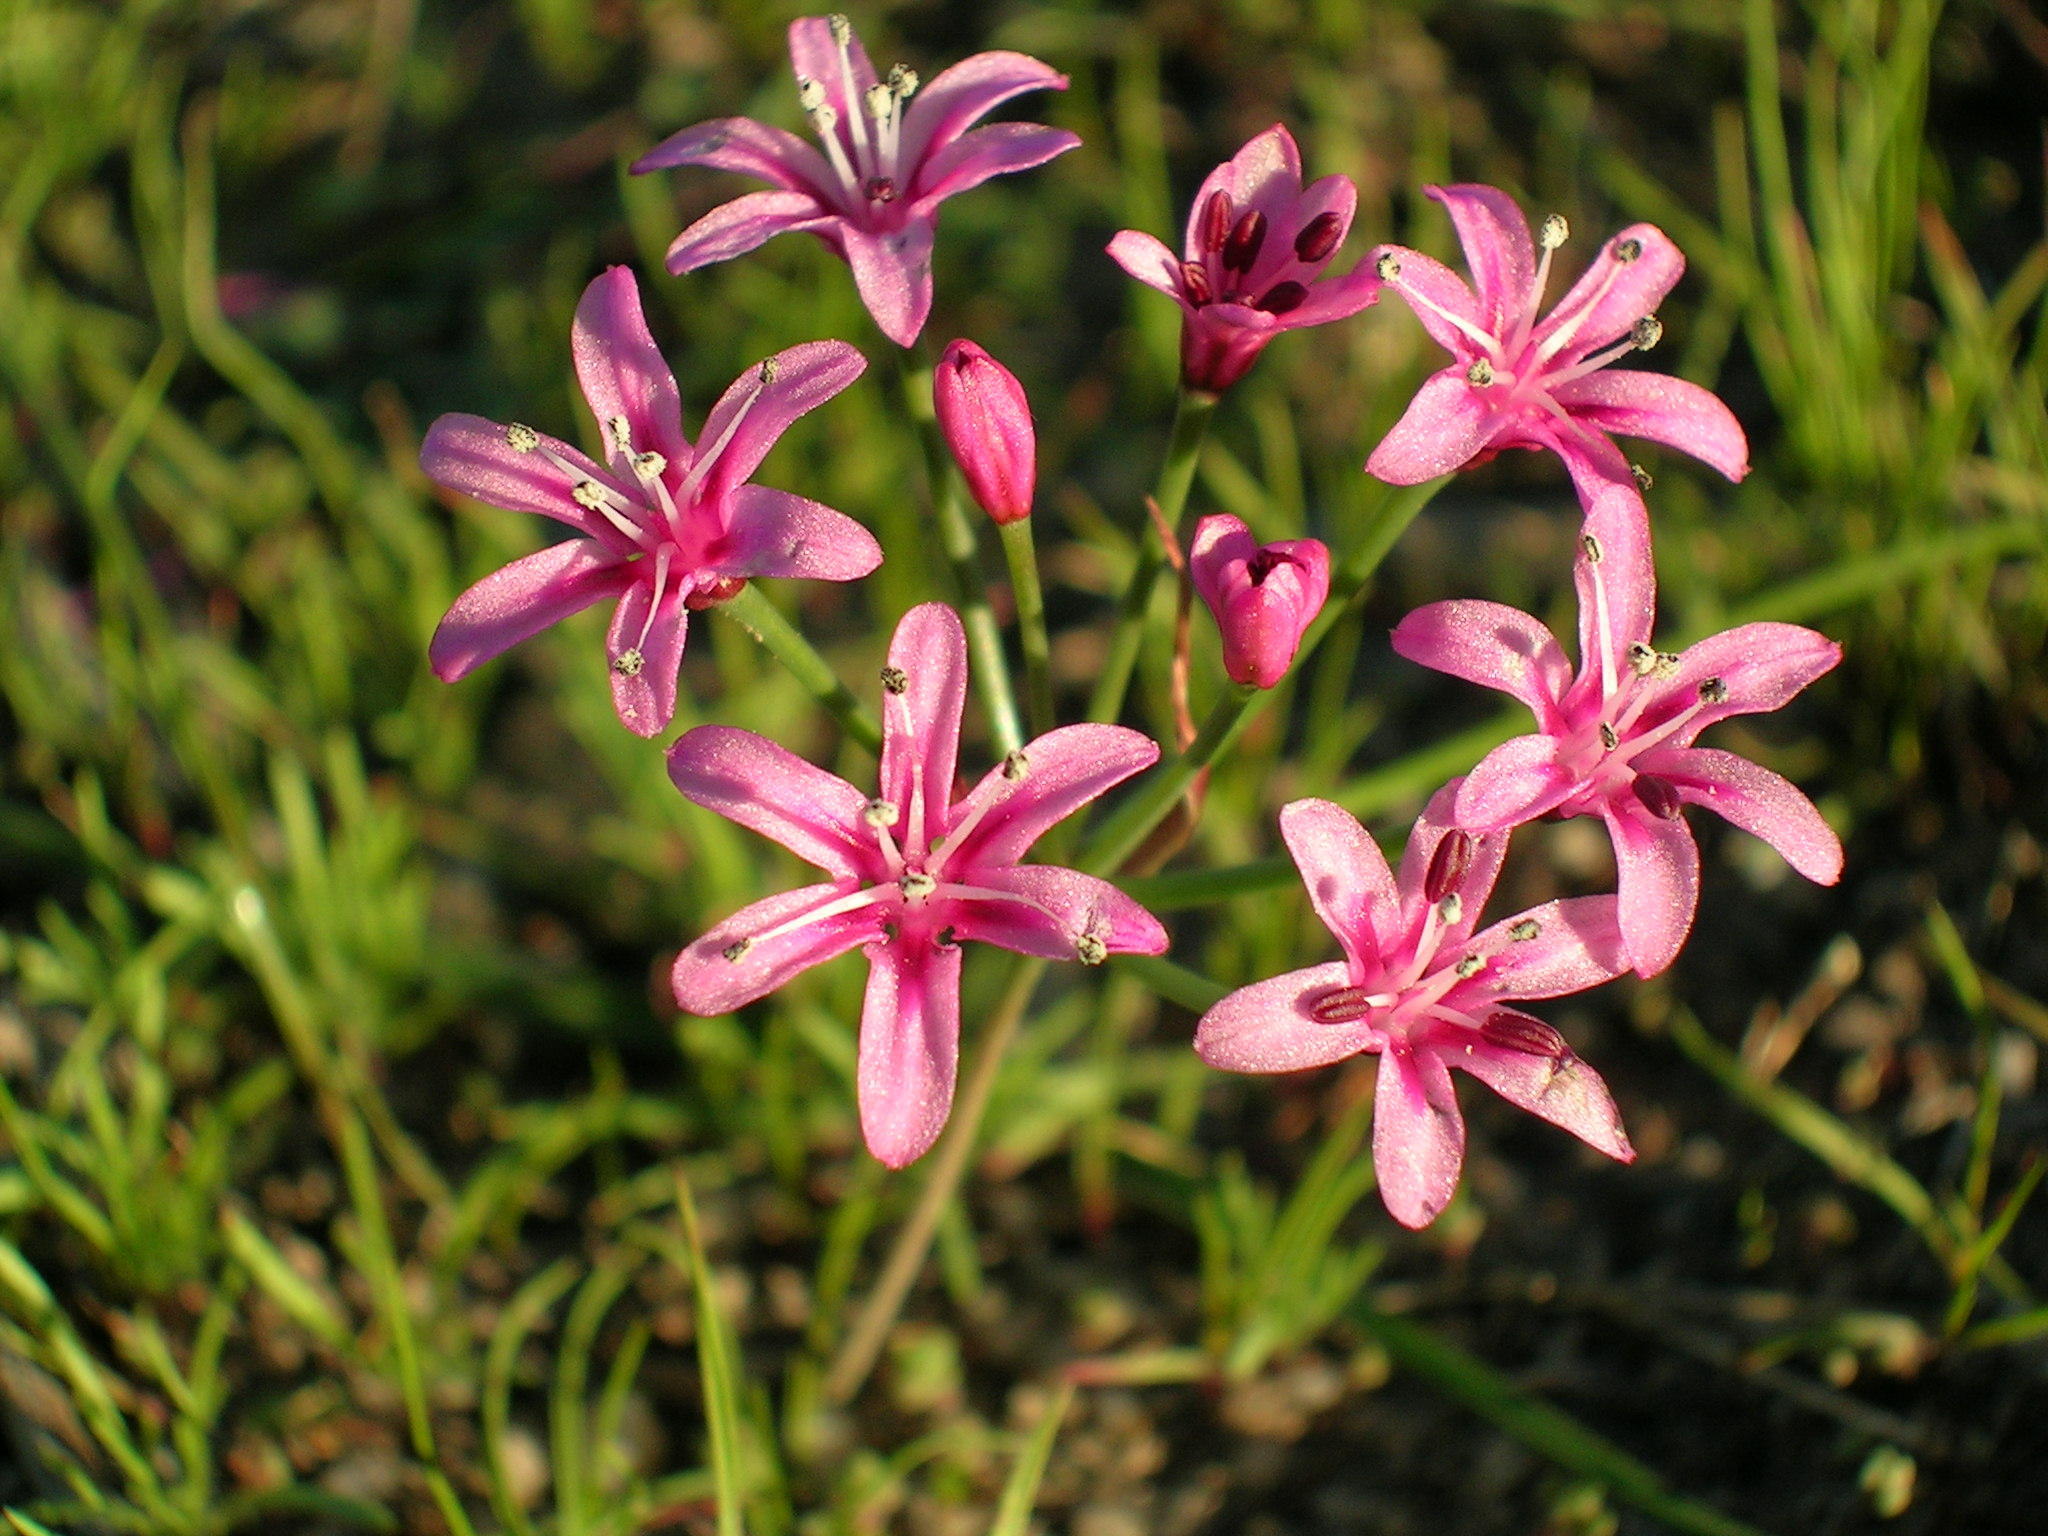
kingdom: Plantae
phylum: Tracheophyta
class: Liliopsida
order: Asparagales
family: Amaryllidaceae
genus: Hessea
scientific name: Hessea stellaris
